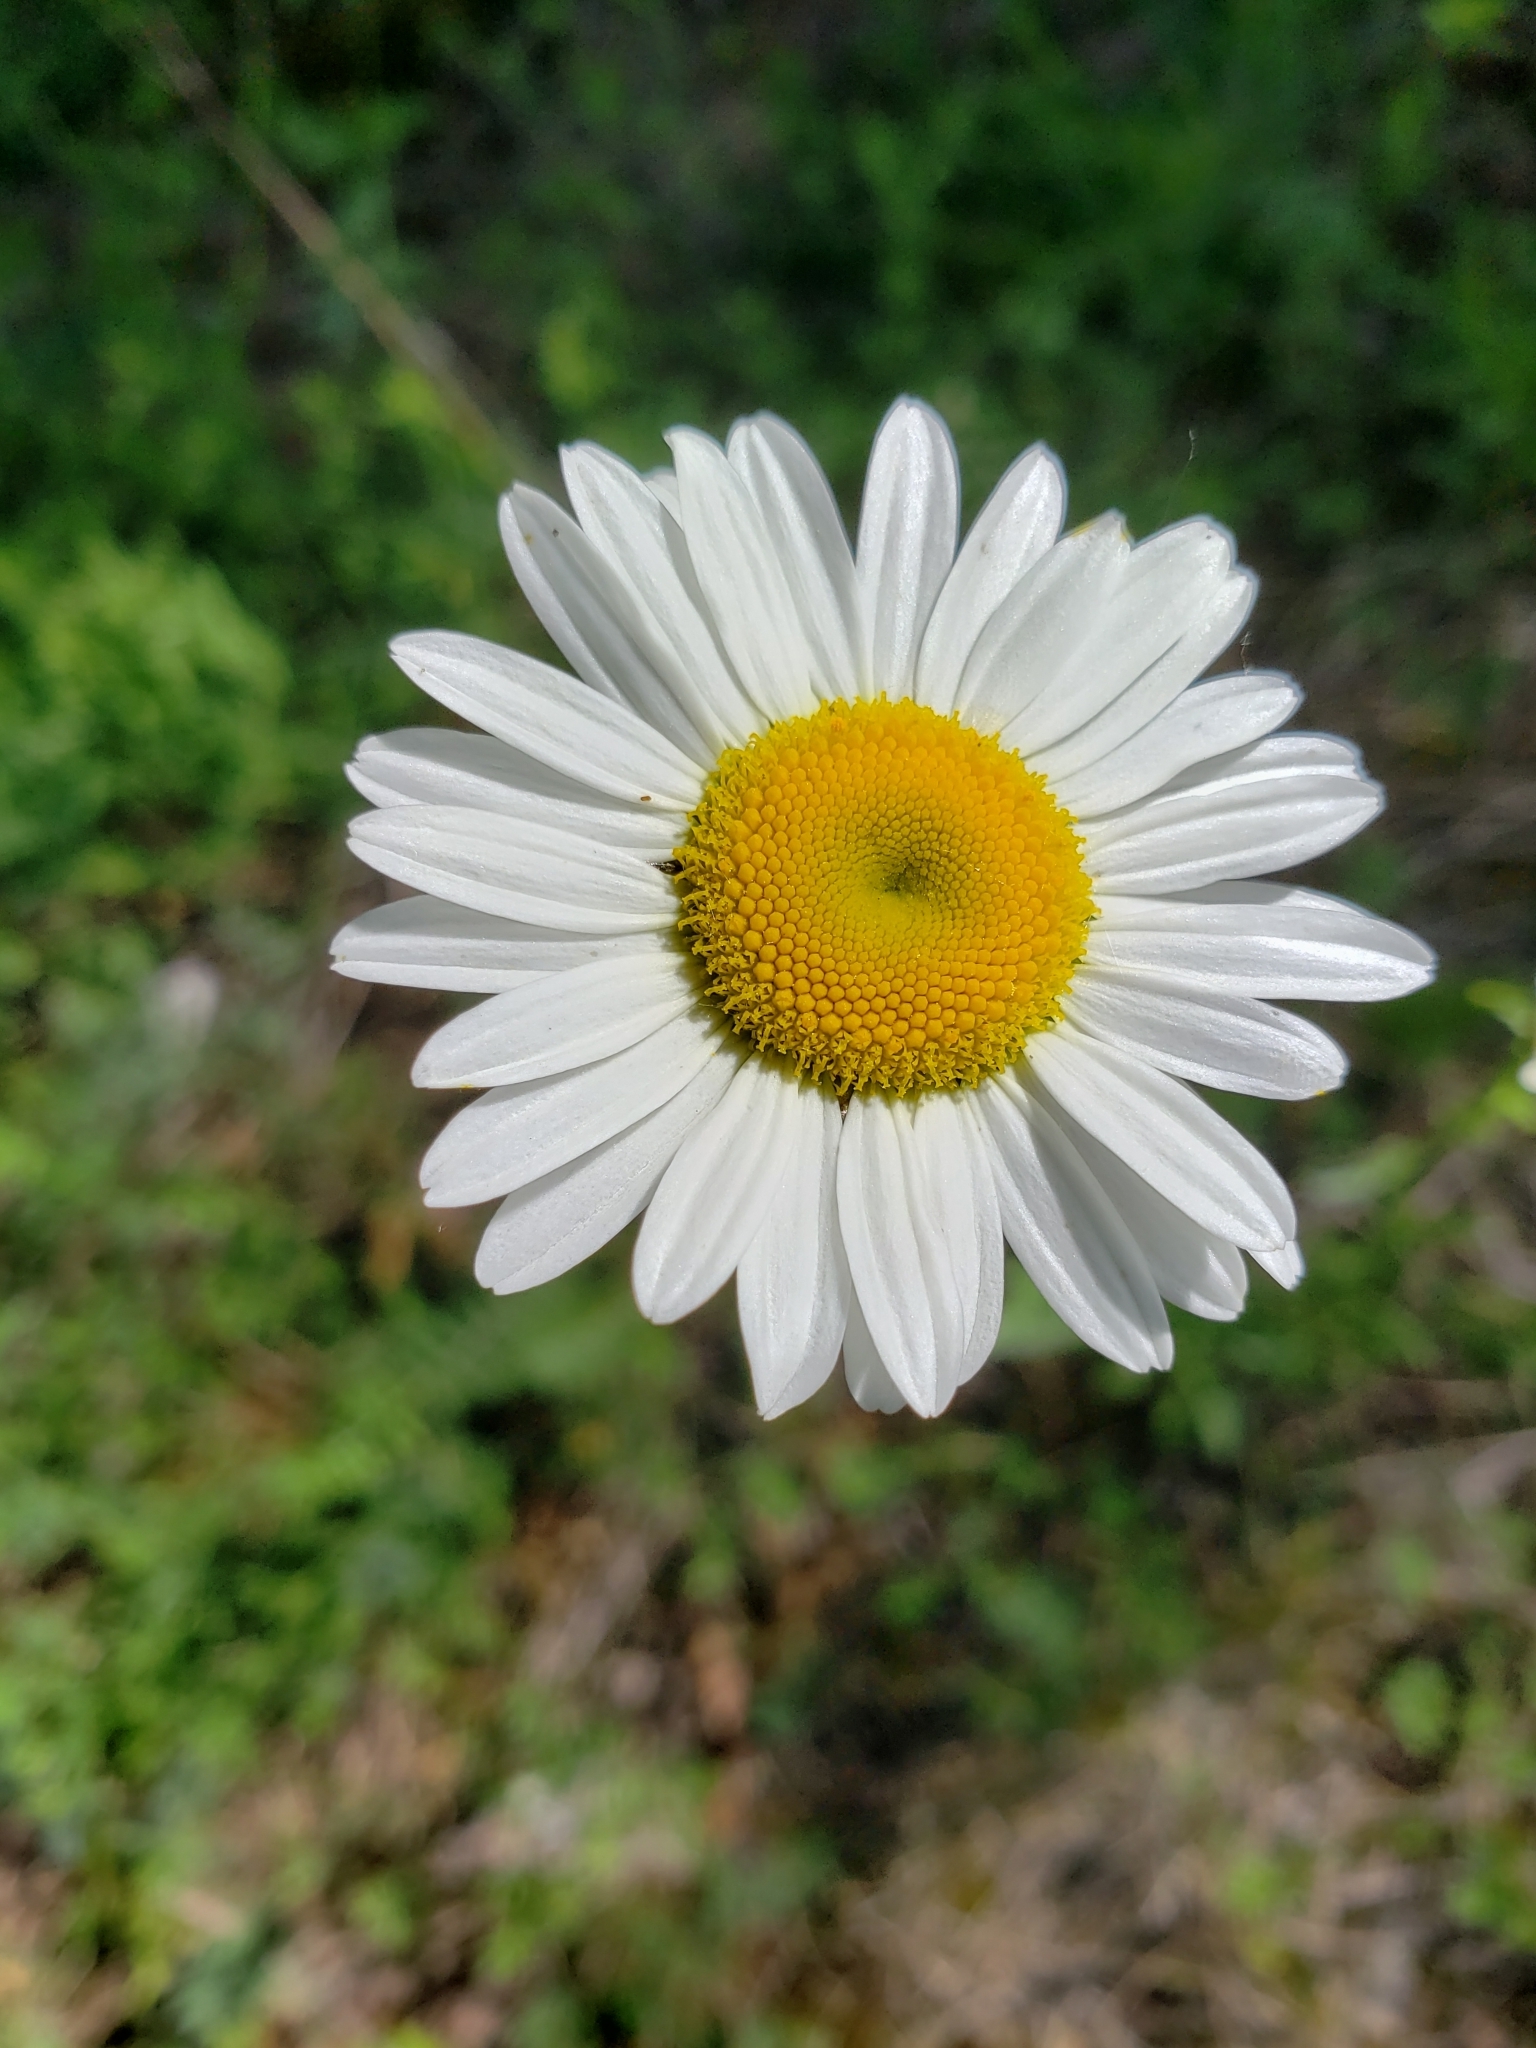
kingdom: Plantae
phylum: Tracheophyta
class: Magnoliopsida
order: Asterales
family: Asteraceae
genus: Leucanthemum
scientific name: Leucanthemum vulgare
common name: Oxeye daisy
